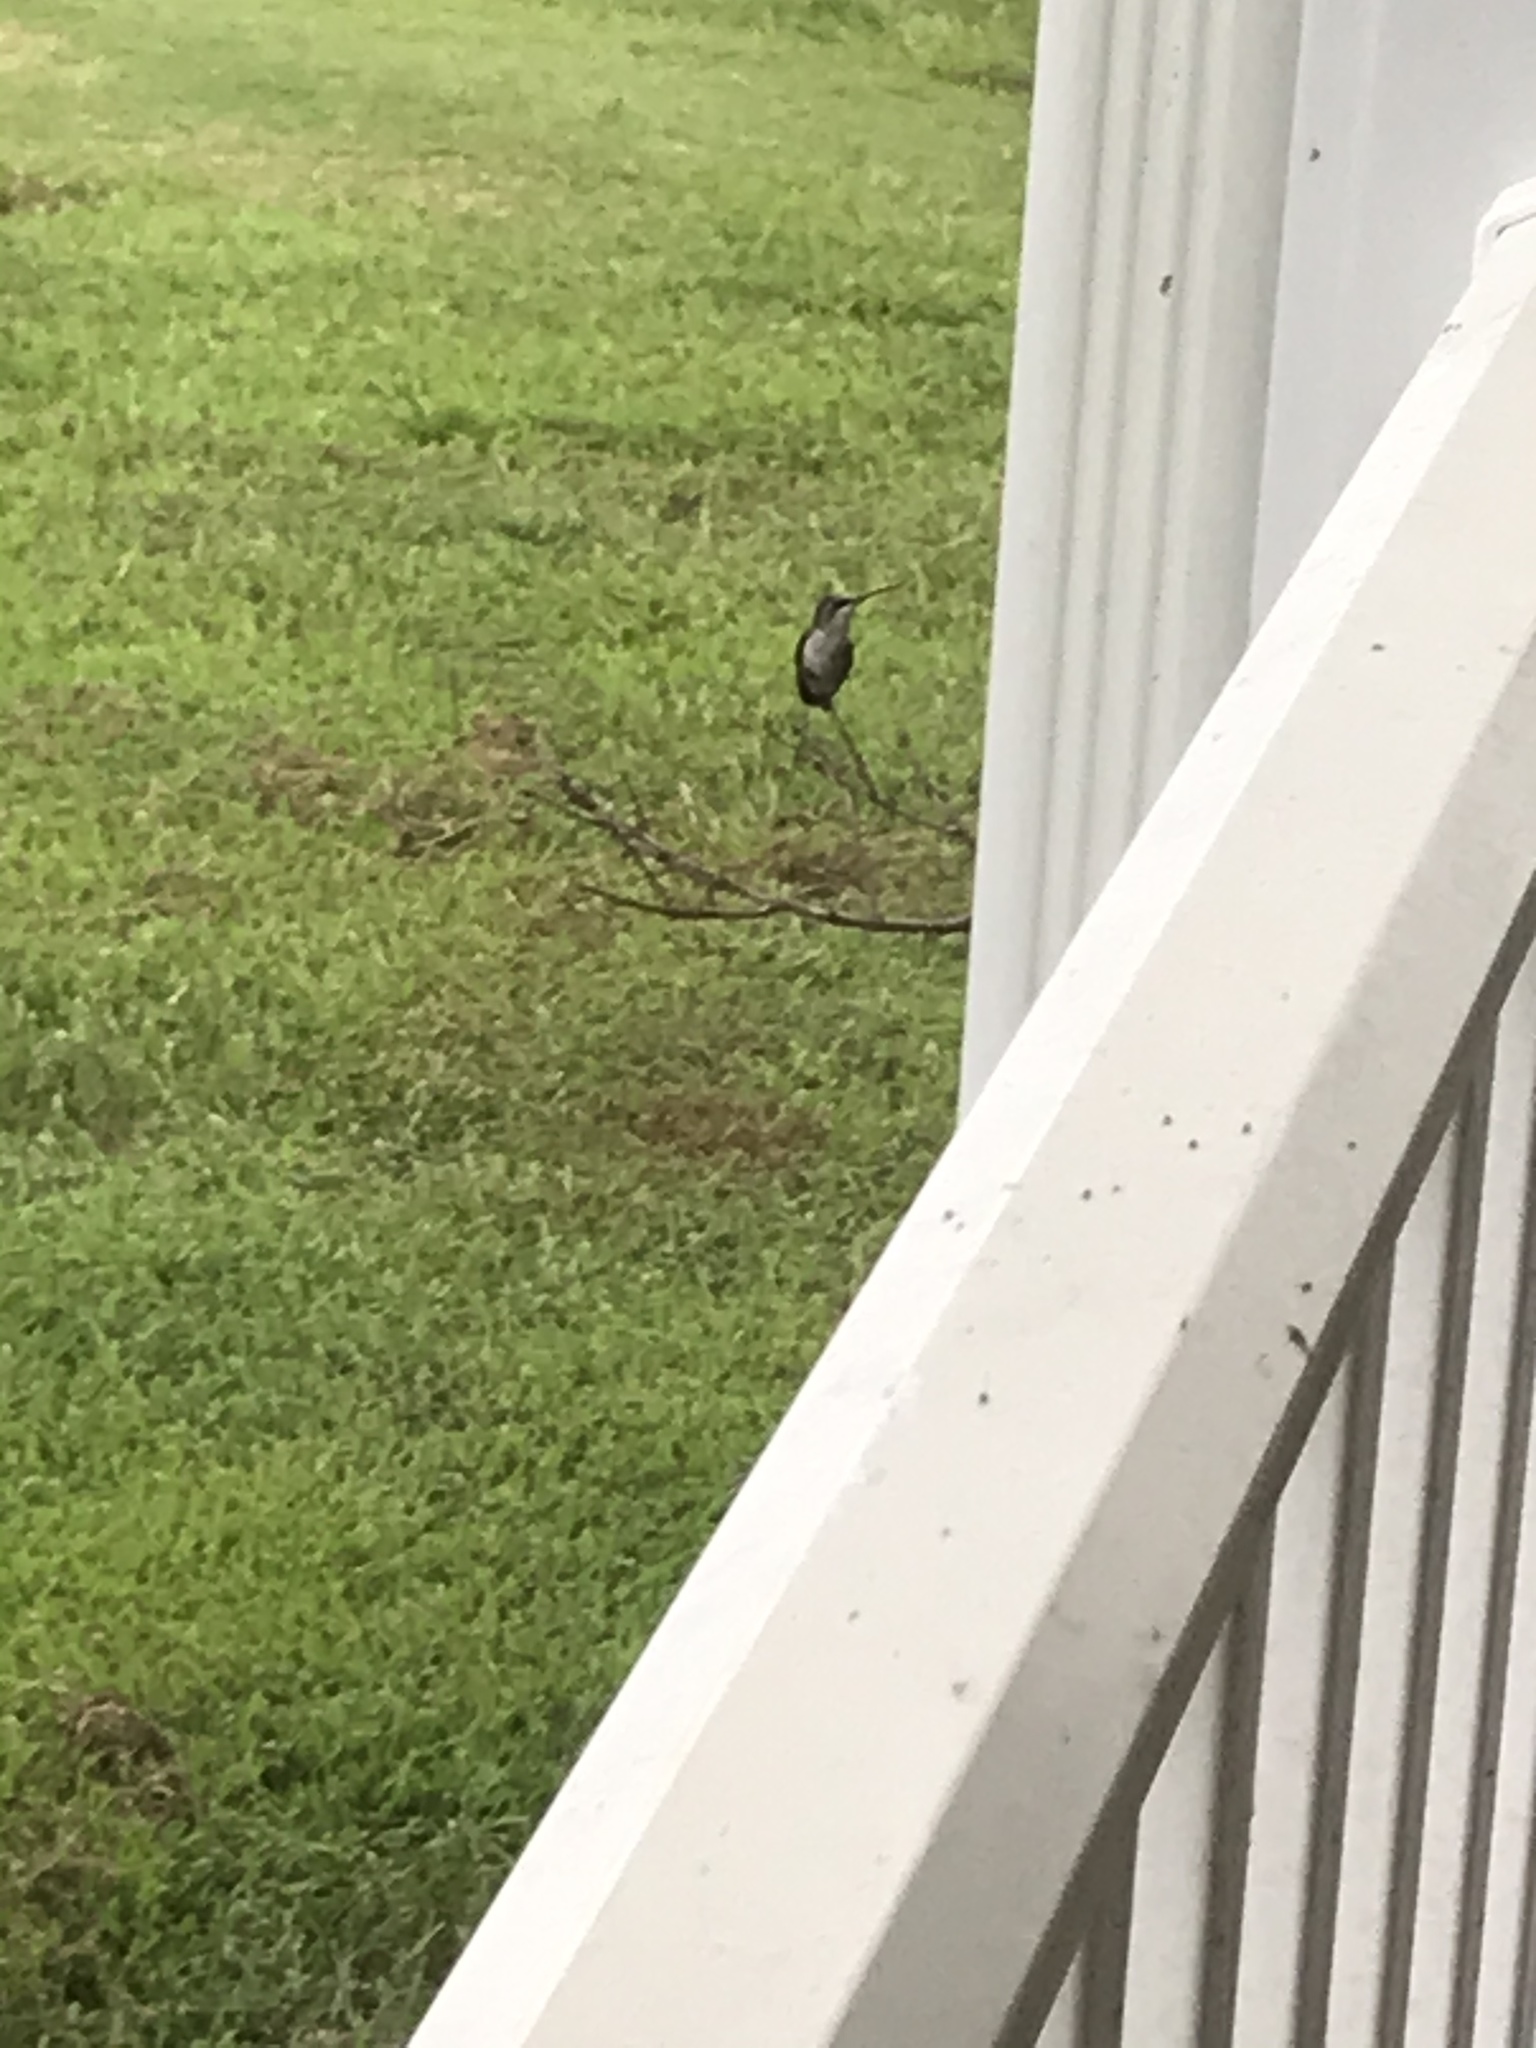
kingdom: Animalia
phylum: Chordata
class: Aves
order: Apodiformes
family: Trochilidae
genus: Archilochus
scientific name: Archilochus colubris
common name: Ruby-throated hummingbird
